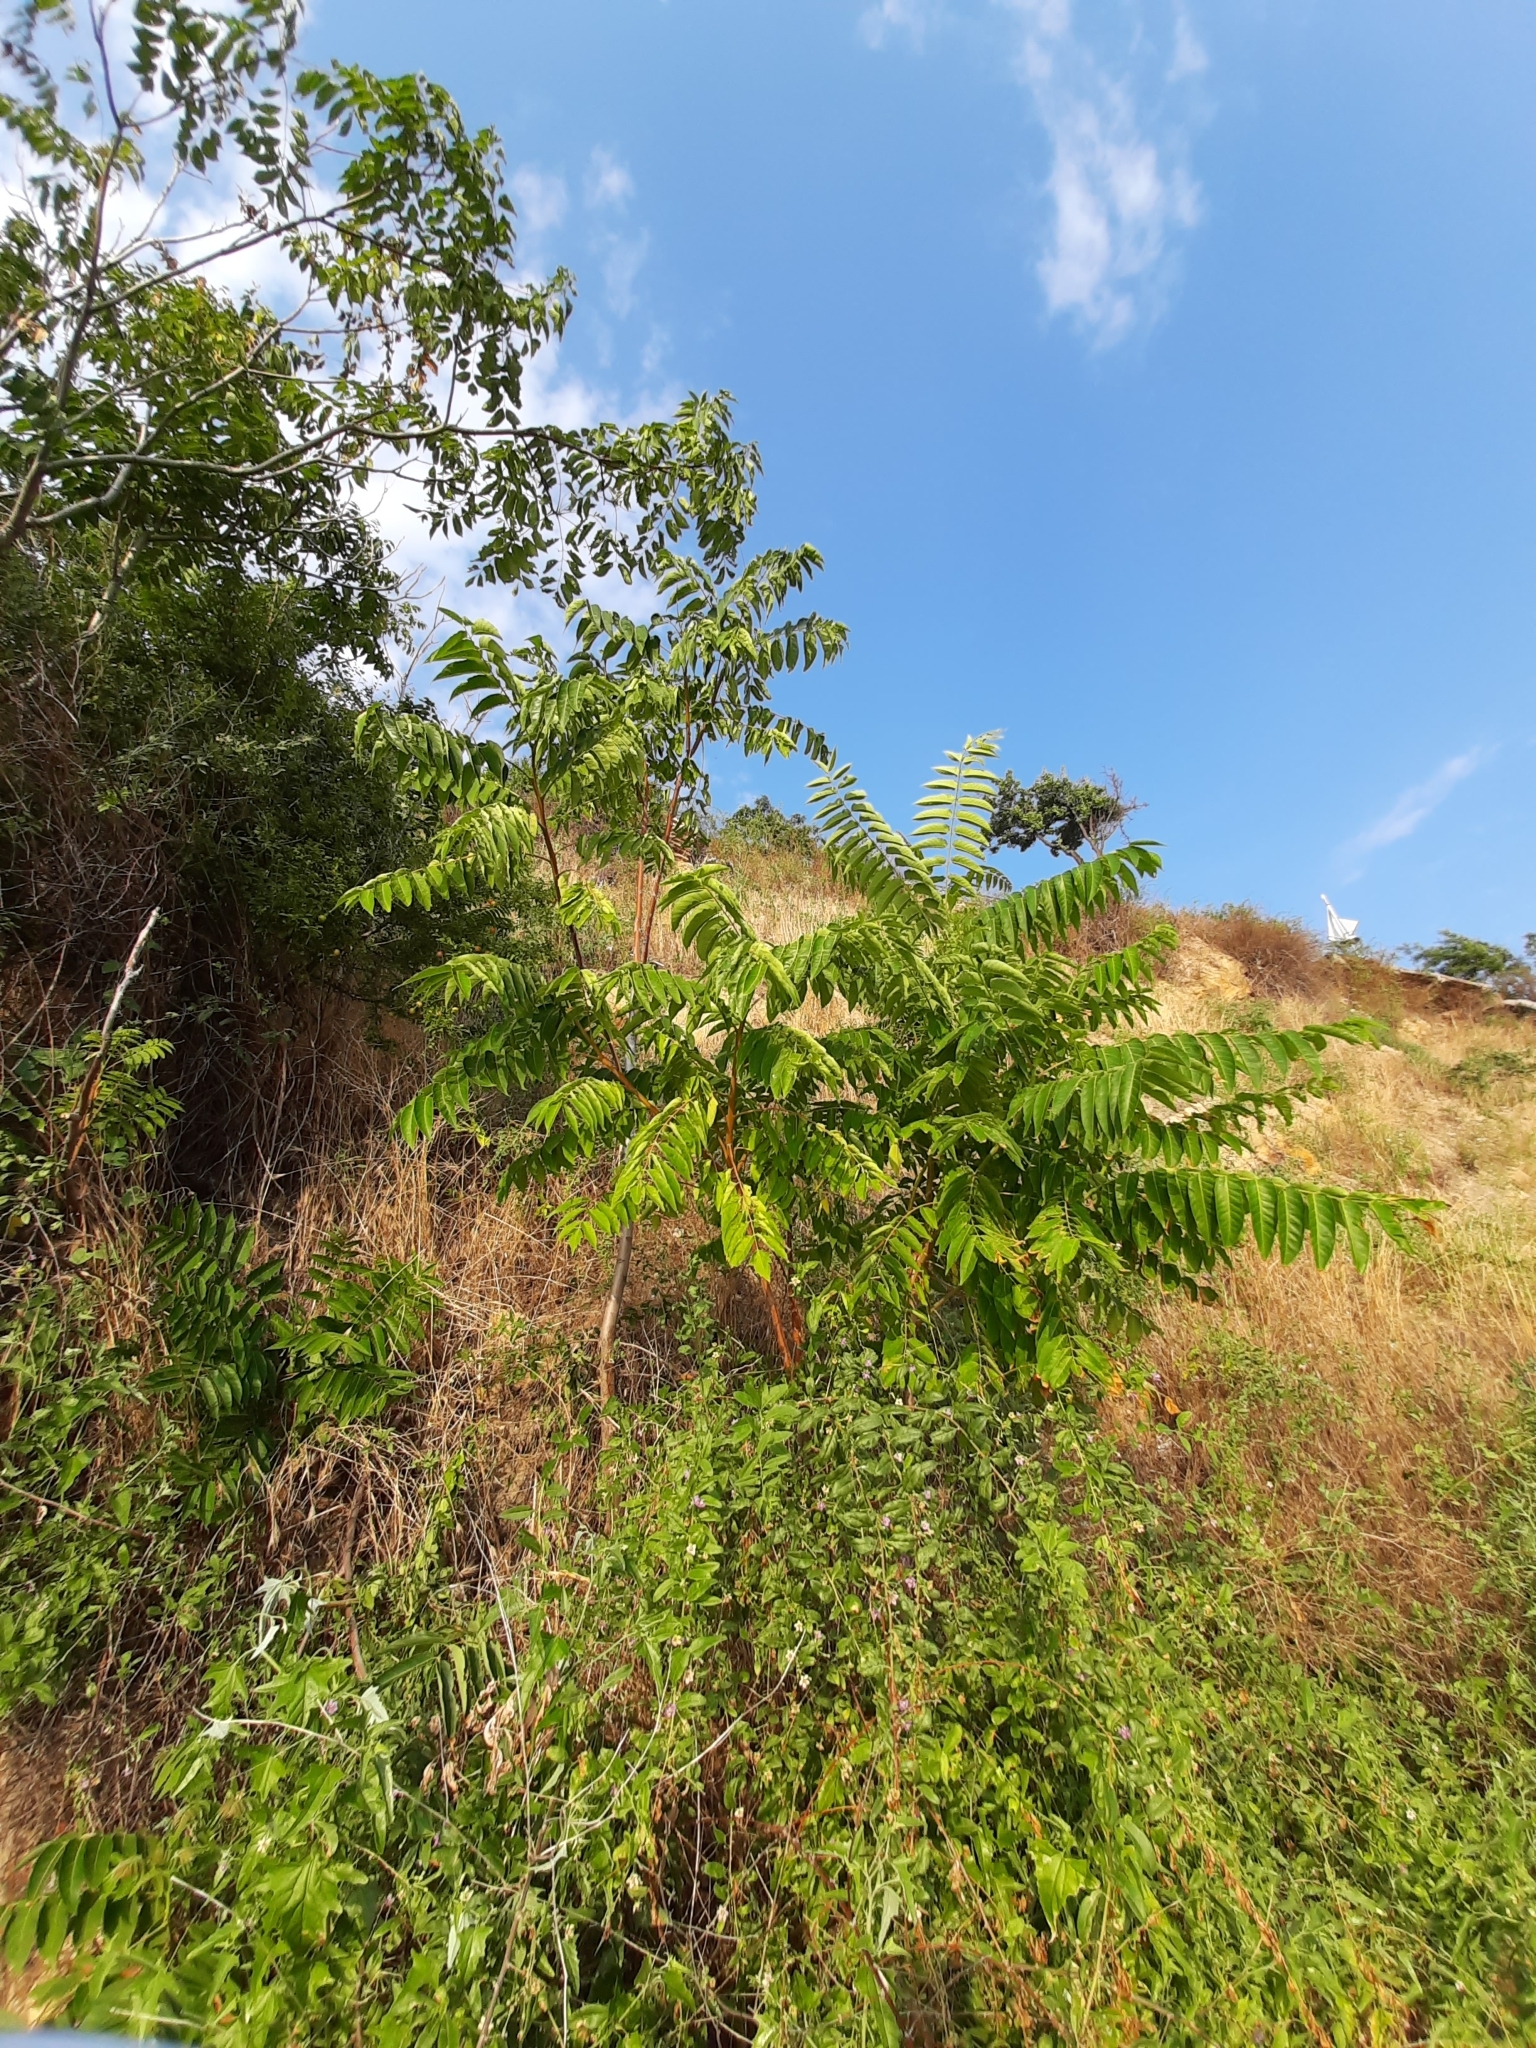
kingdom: Plantae
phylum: Tracheophyta
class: Magnoliopsida
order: Sapindales
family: Simaroubaceae
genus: Ailanthus
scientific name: Ailanthus altissima
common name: Tree-of-heaven
